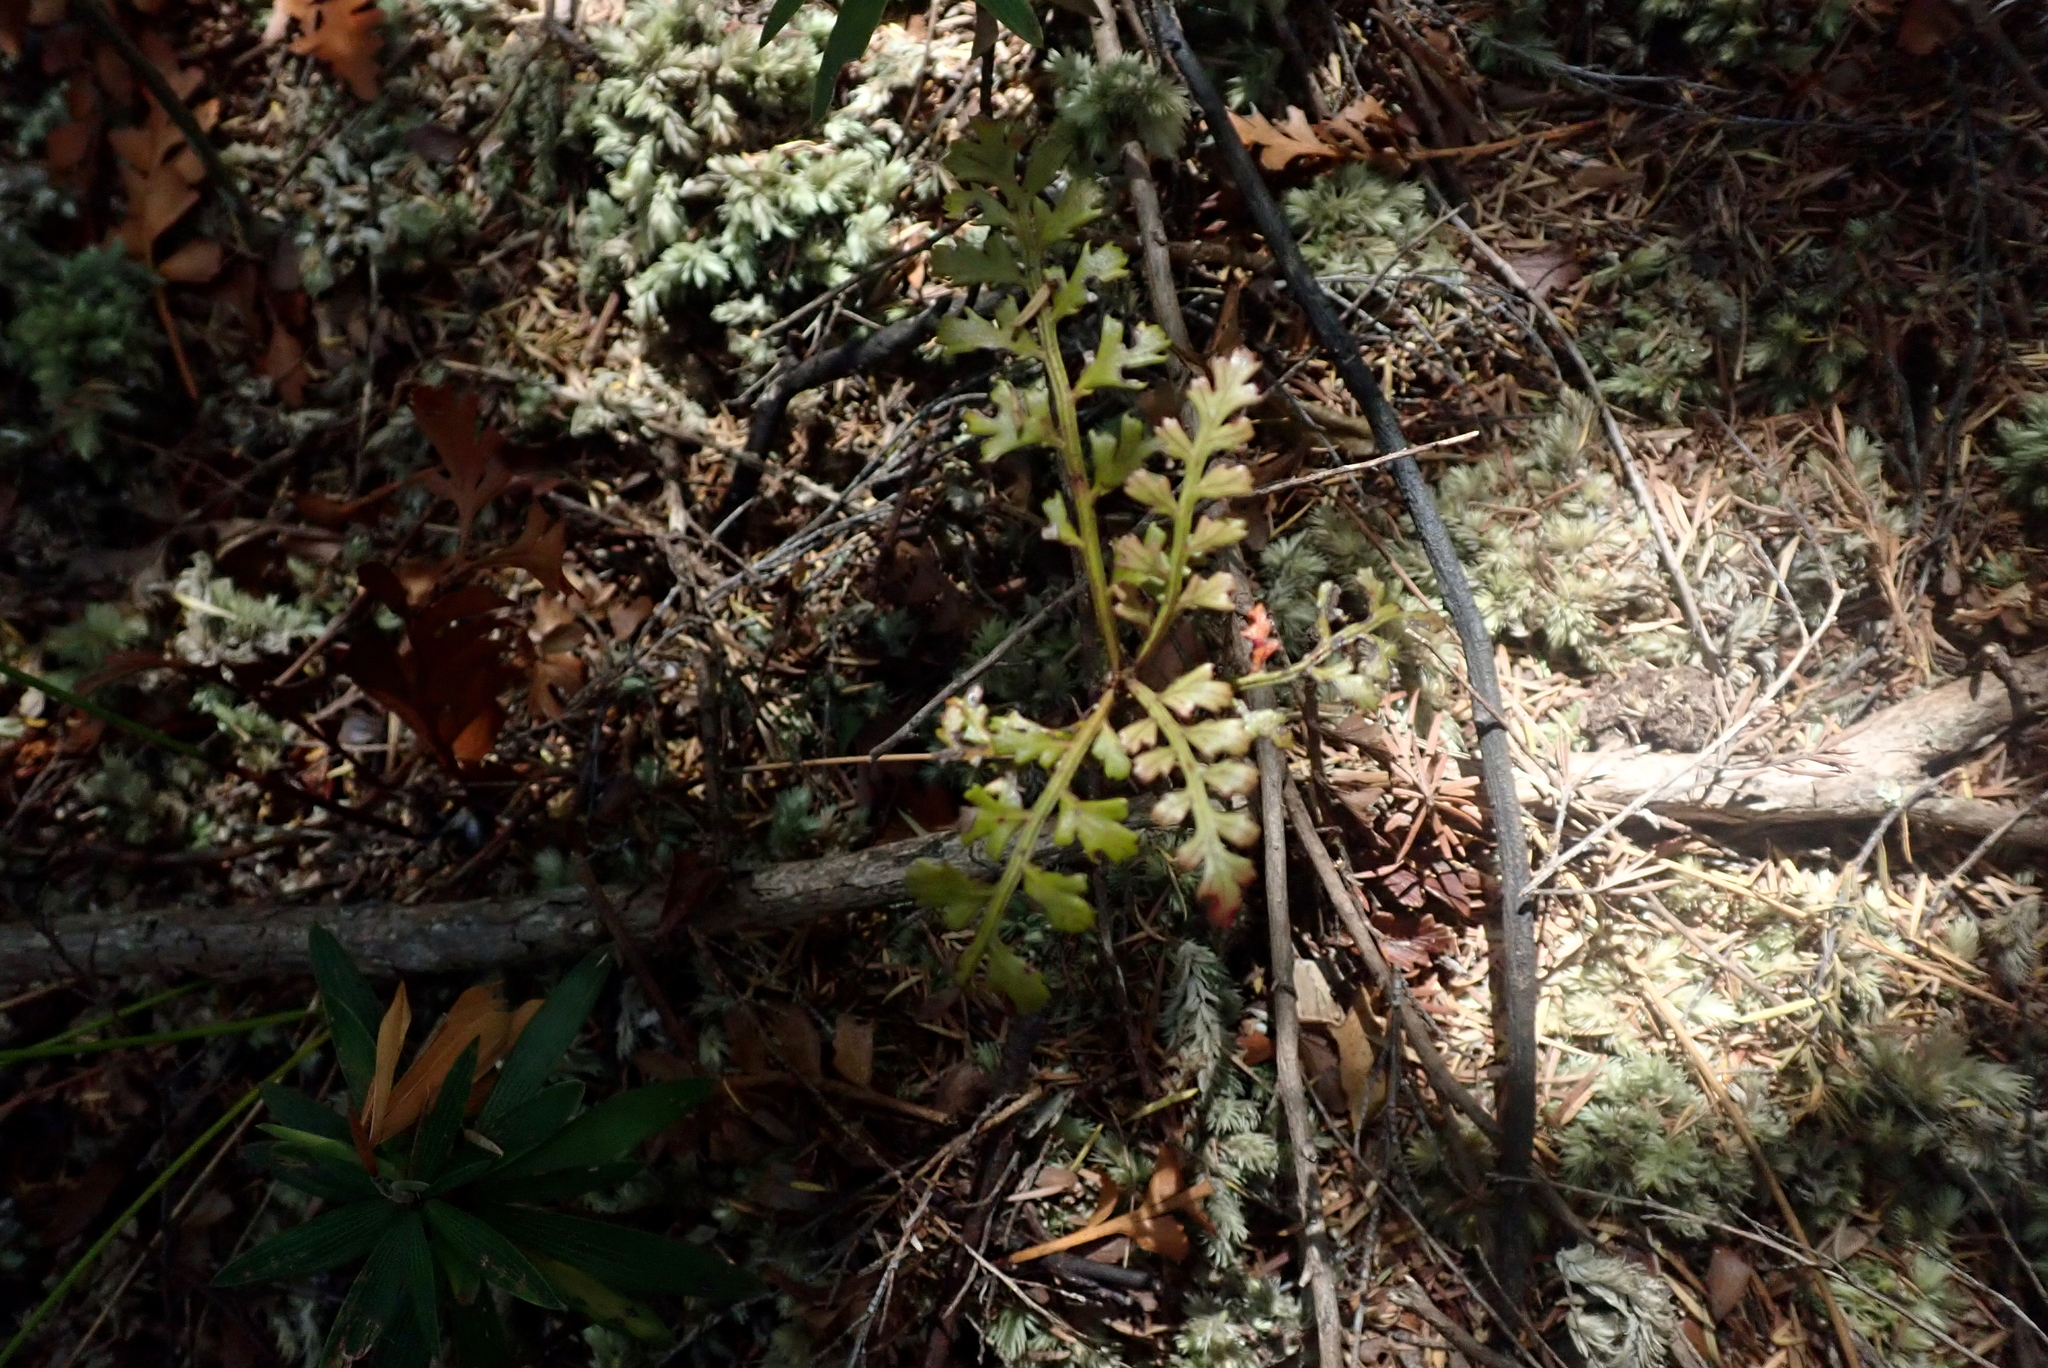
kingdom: Plantae
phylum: Tracheophyta
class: Pinopsida
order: Pinales
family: Phyllocladaceae
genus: Phyllocladus
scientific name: Phyllocladus trichomanoides
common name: Celery pine
